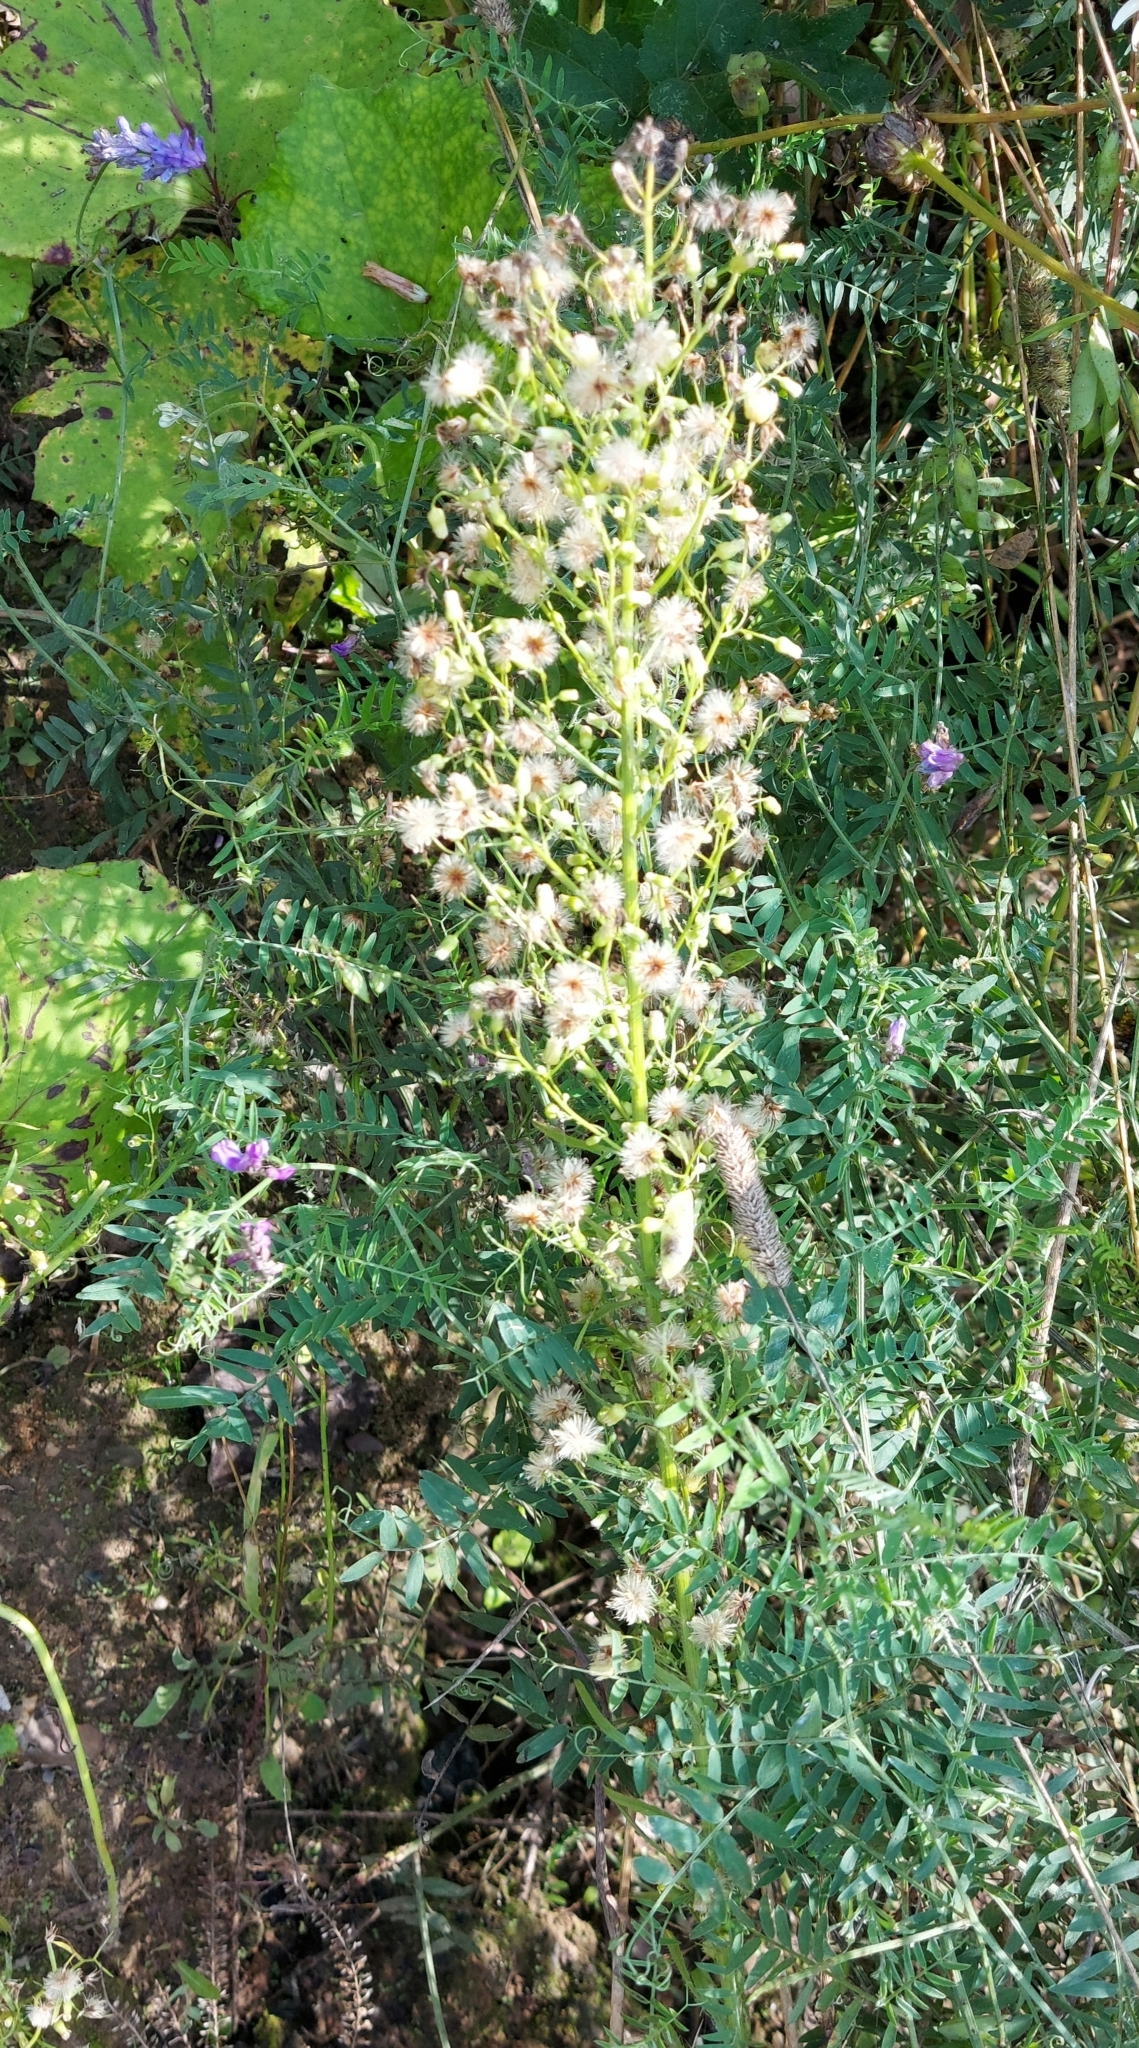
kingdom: Plantae
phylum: Tracheophyta
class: Magnoliopsida
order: Asterales
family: Asteraceae
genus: Erigeron
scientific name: Erigeron canadensis
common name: Canadian fleabane
